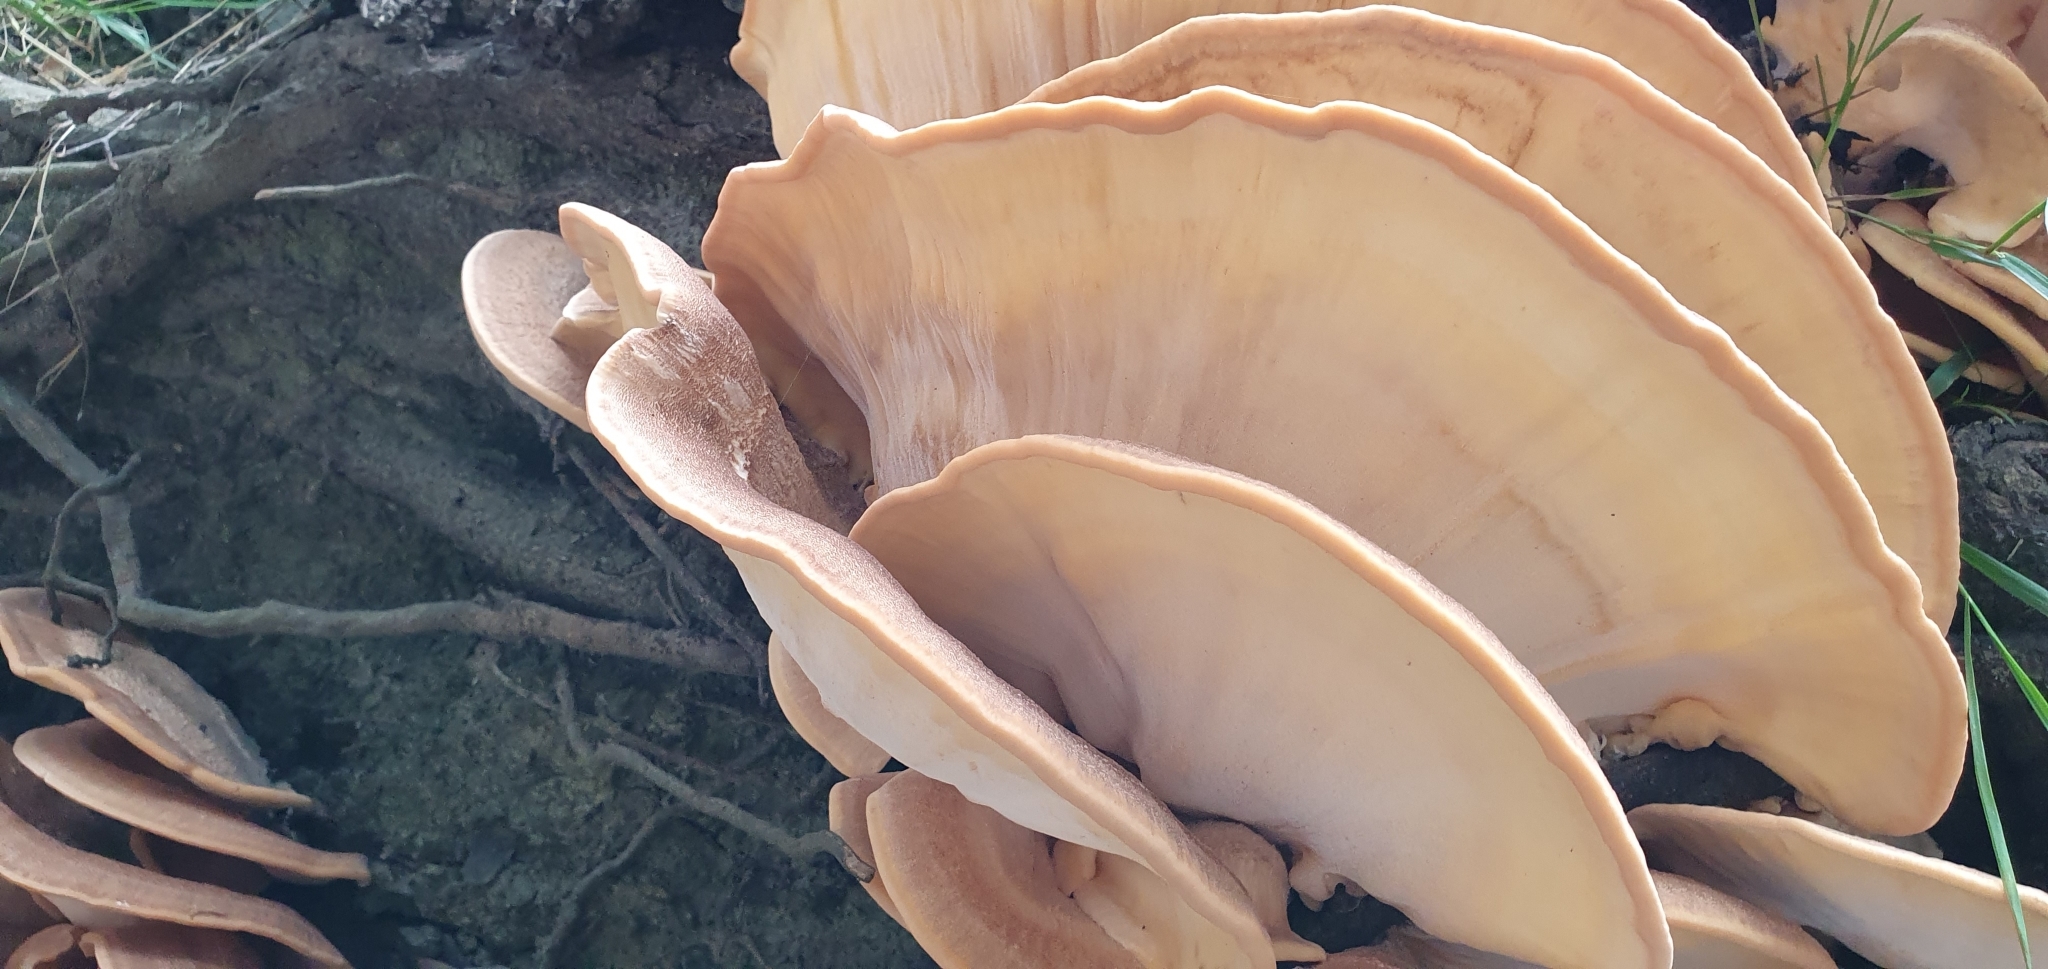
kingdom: Fungi
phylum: Basidiomycota
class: Agaricomycetes
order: Polyporales
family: Meripilaceae
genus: Meripilus
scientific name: Meripilus giganteus
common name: Giant polypore
